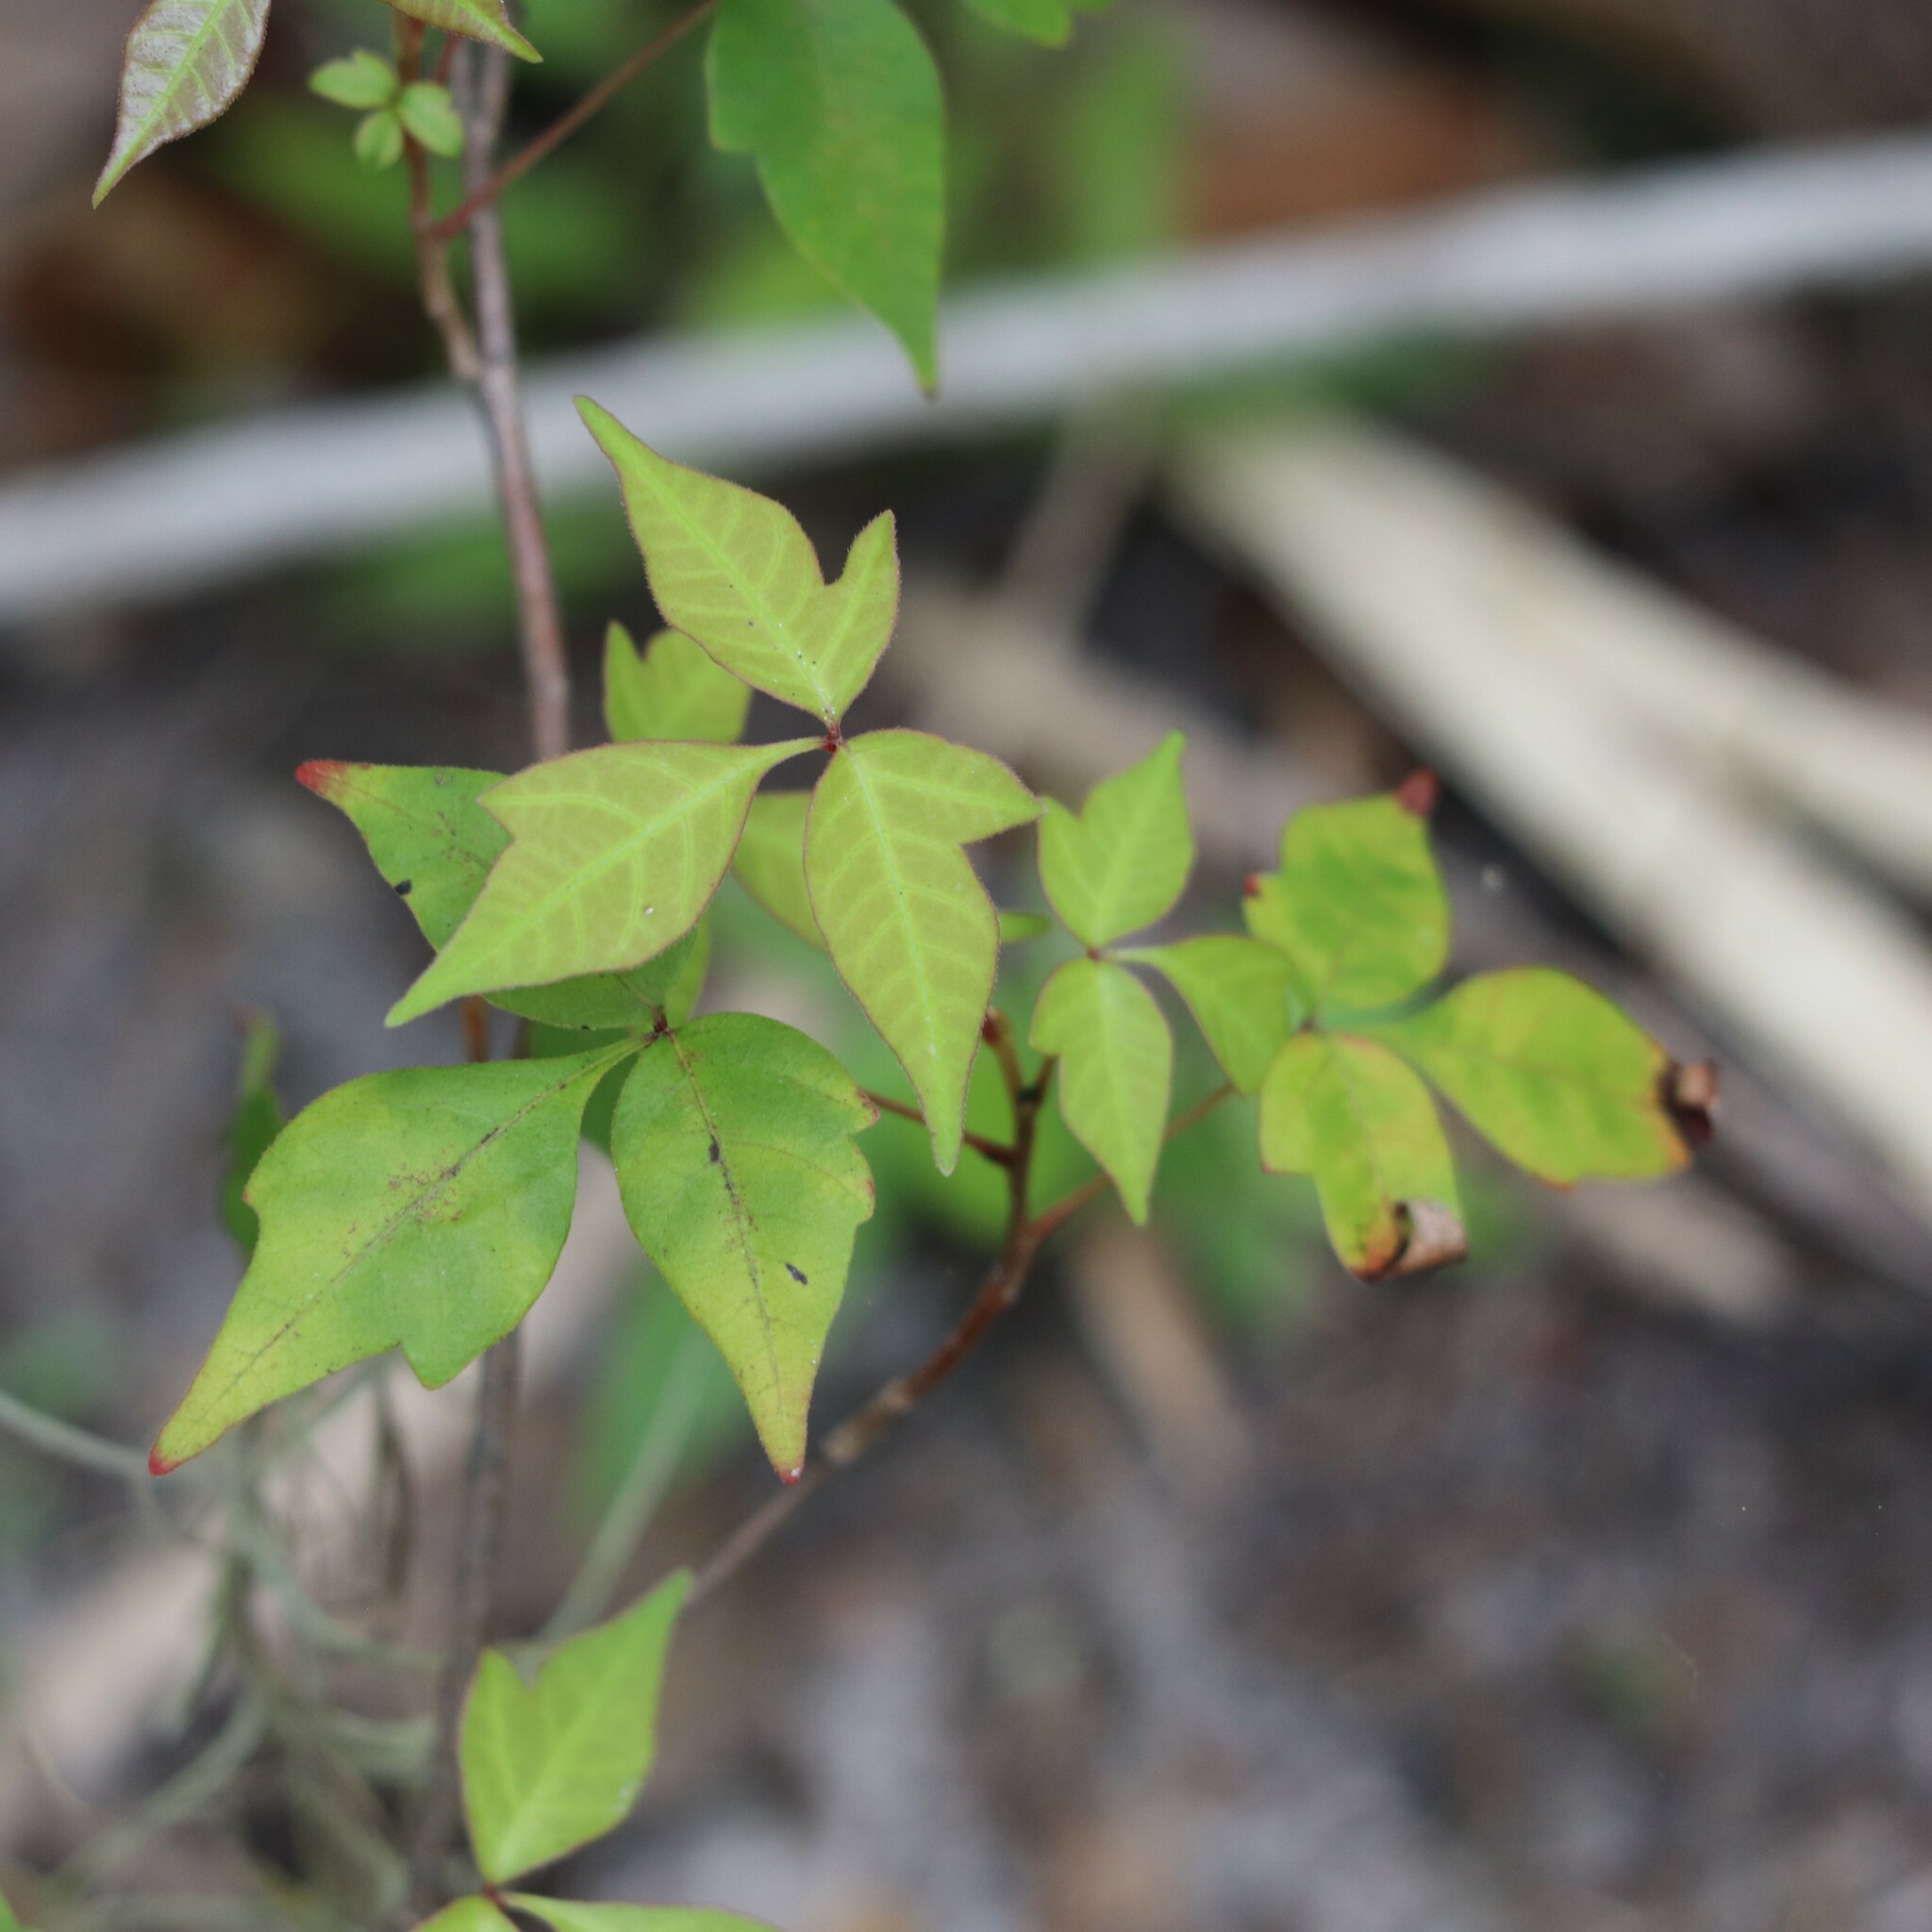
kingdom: Plantae
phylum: Tracheophyta
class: Magnoliopsida
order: Sapindales
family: Anacardiaceae
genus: Toxicodendron
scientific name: Toxicodendron radicans
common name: Poison ivy
